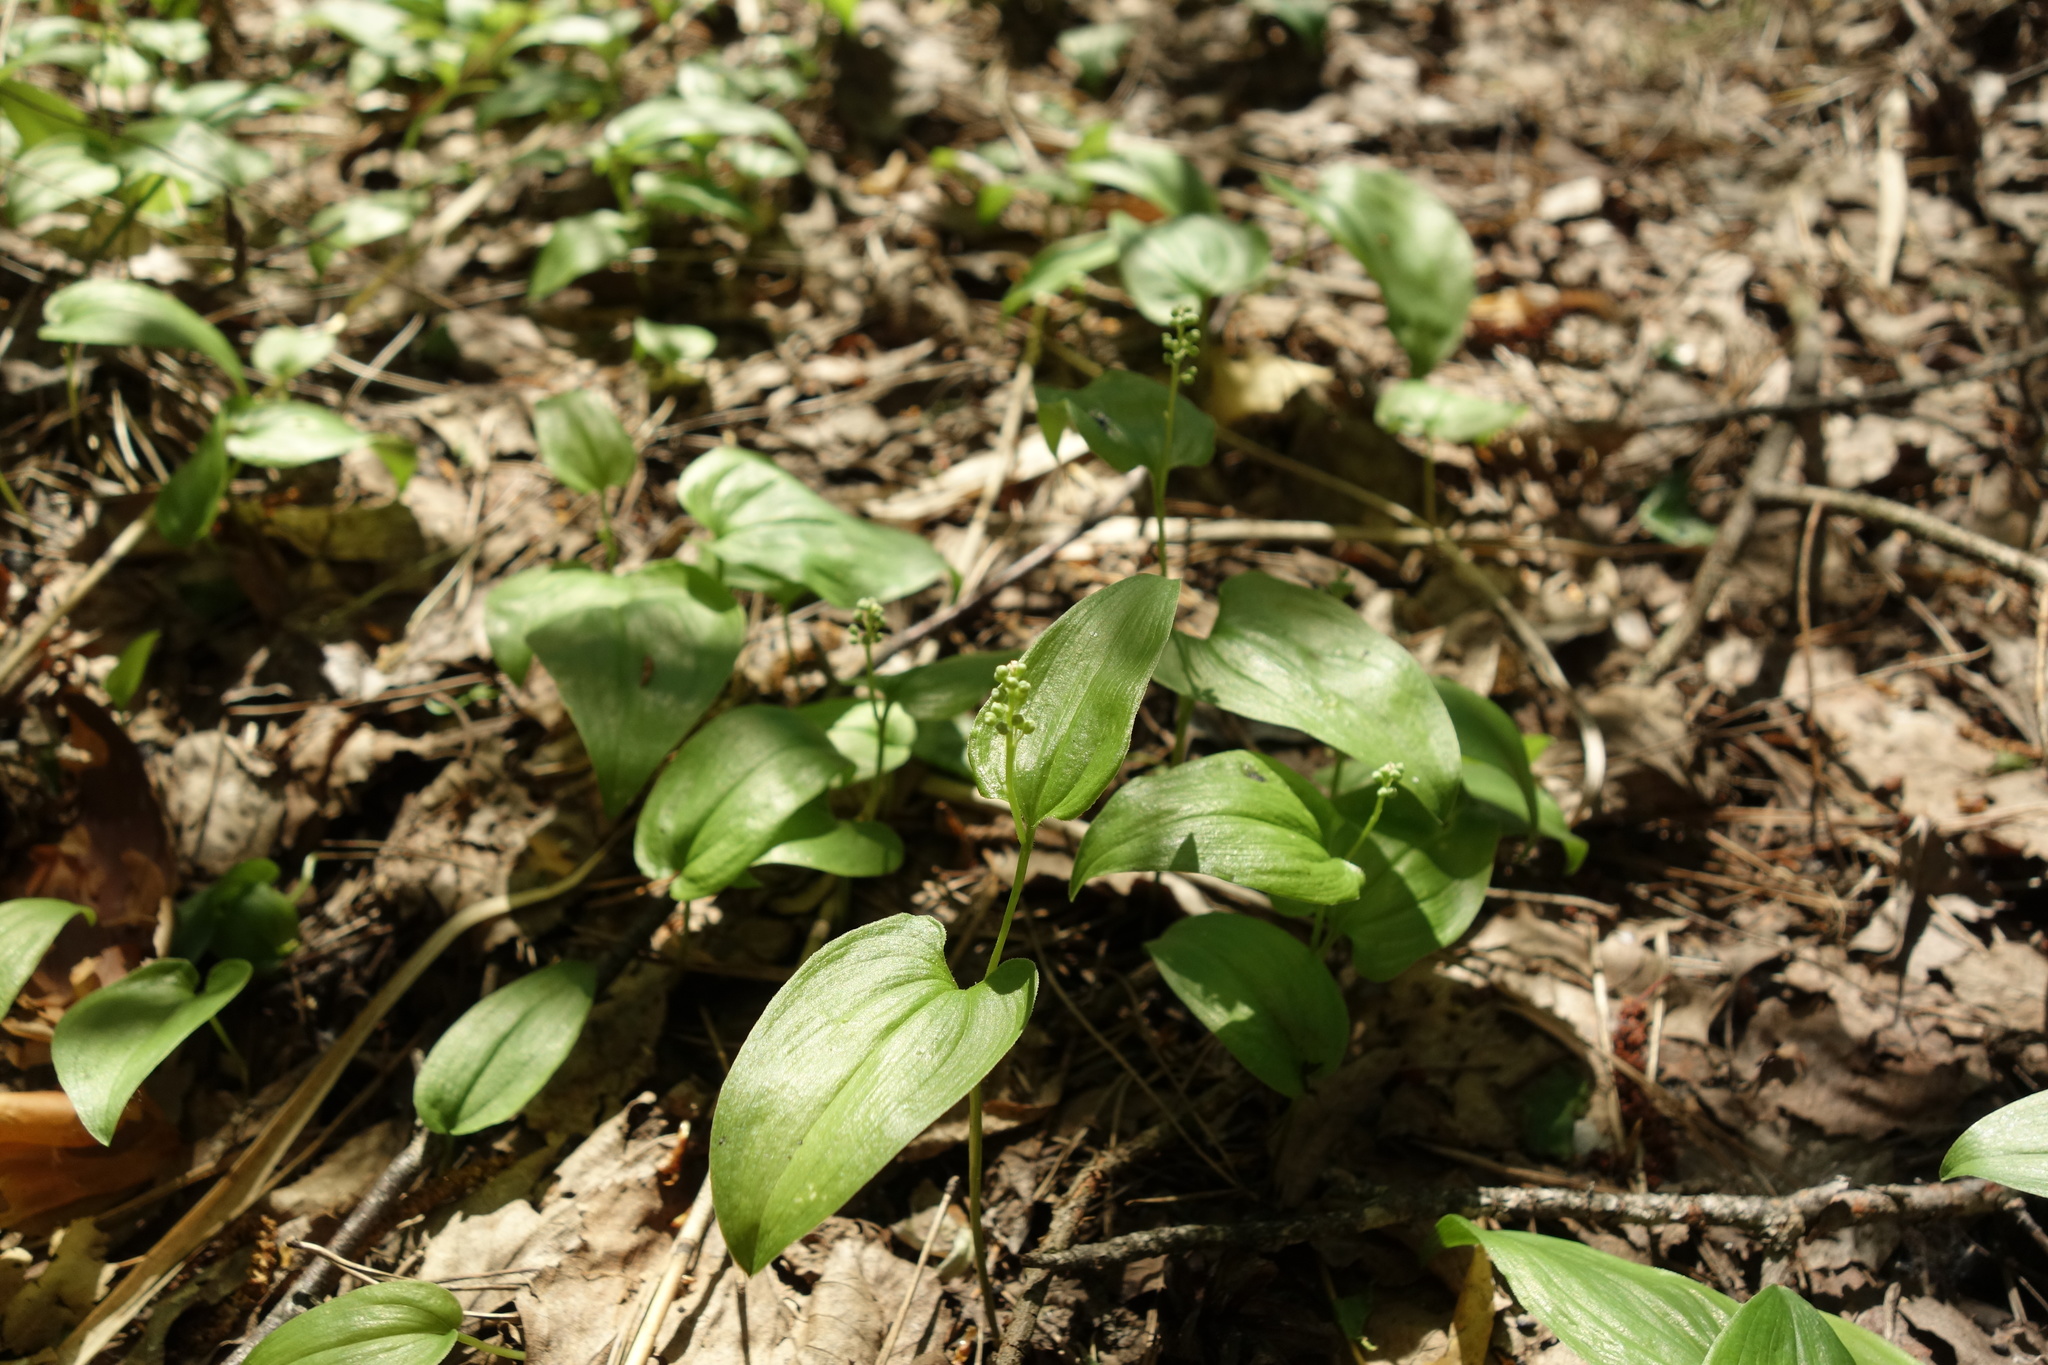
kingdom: Plantae
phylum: Tracheophyta
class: Liliopsida
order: Asparagales
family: Asparagaceae
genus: Maianthemum
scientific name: Maianthemum bifolium
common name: May lily
